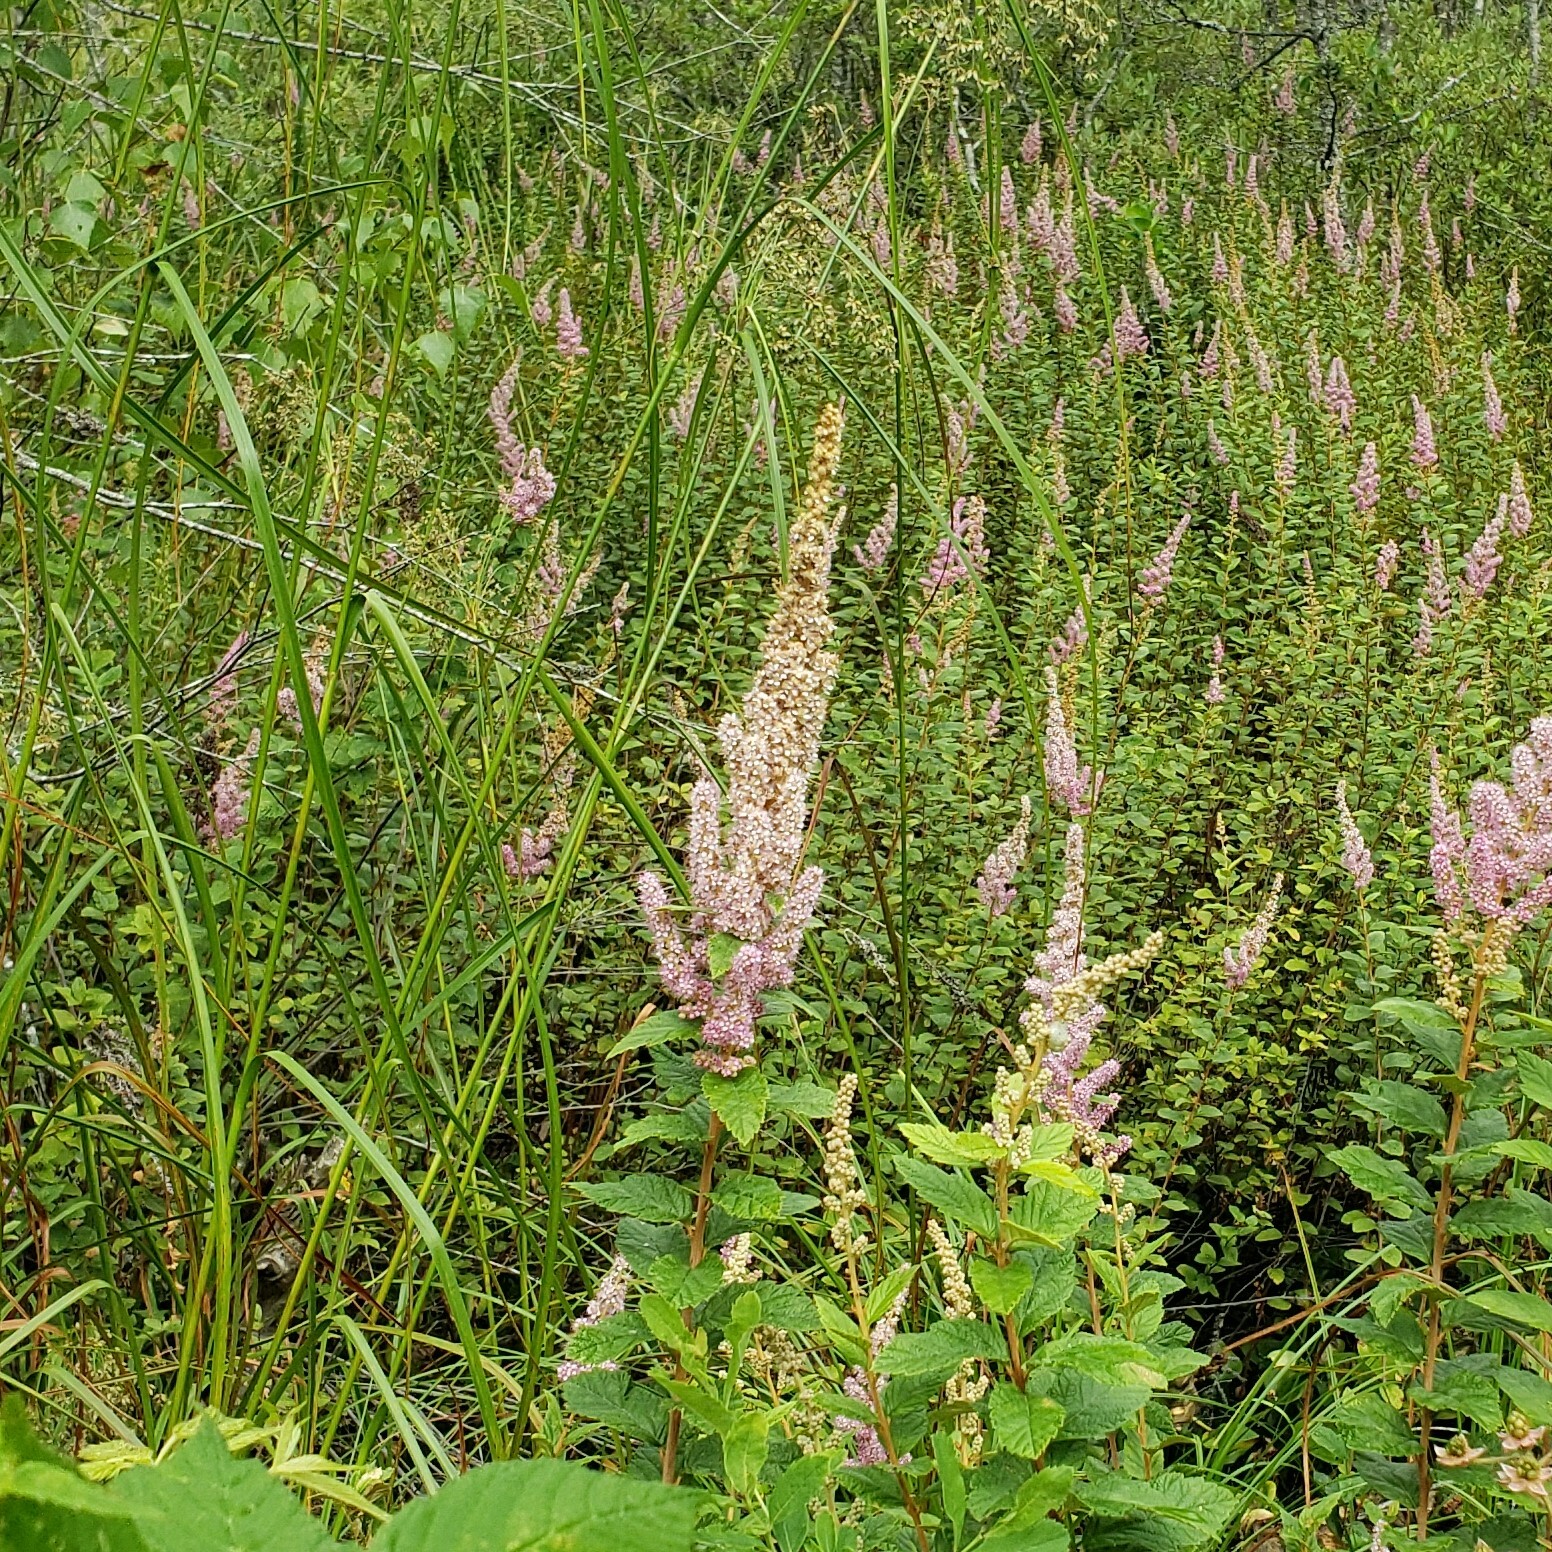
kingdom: Plantae
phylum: Tracheophyta
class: Magnoliopsida
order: Rosales
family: Rosaceae
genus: Spiraea
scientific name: Spiraea tomentosa
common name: Hardhack
